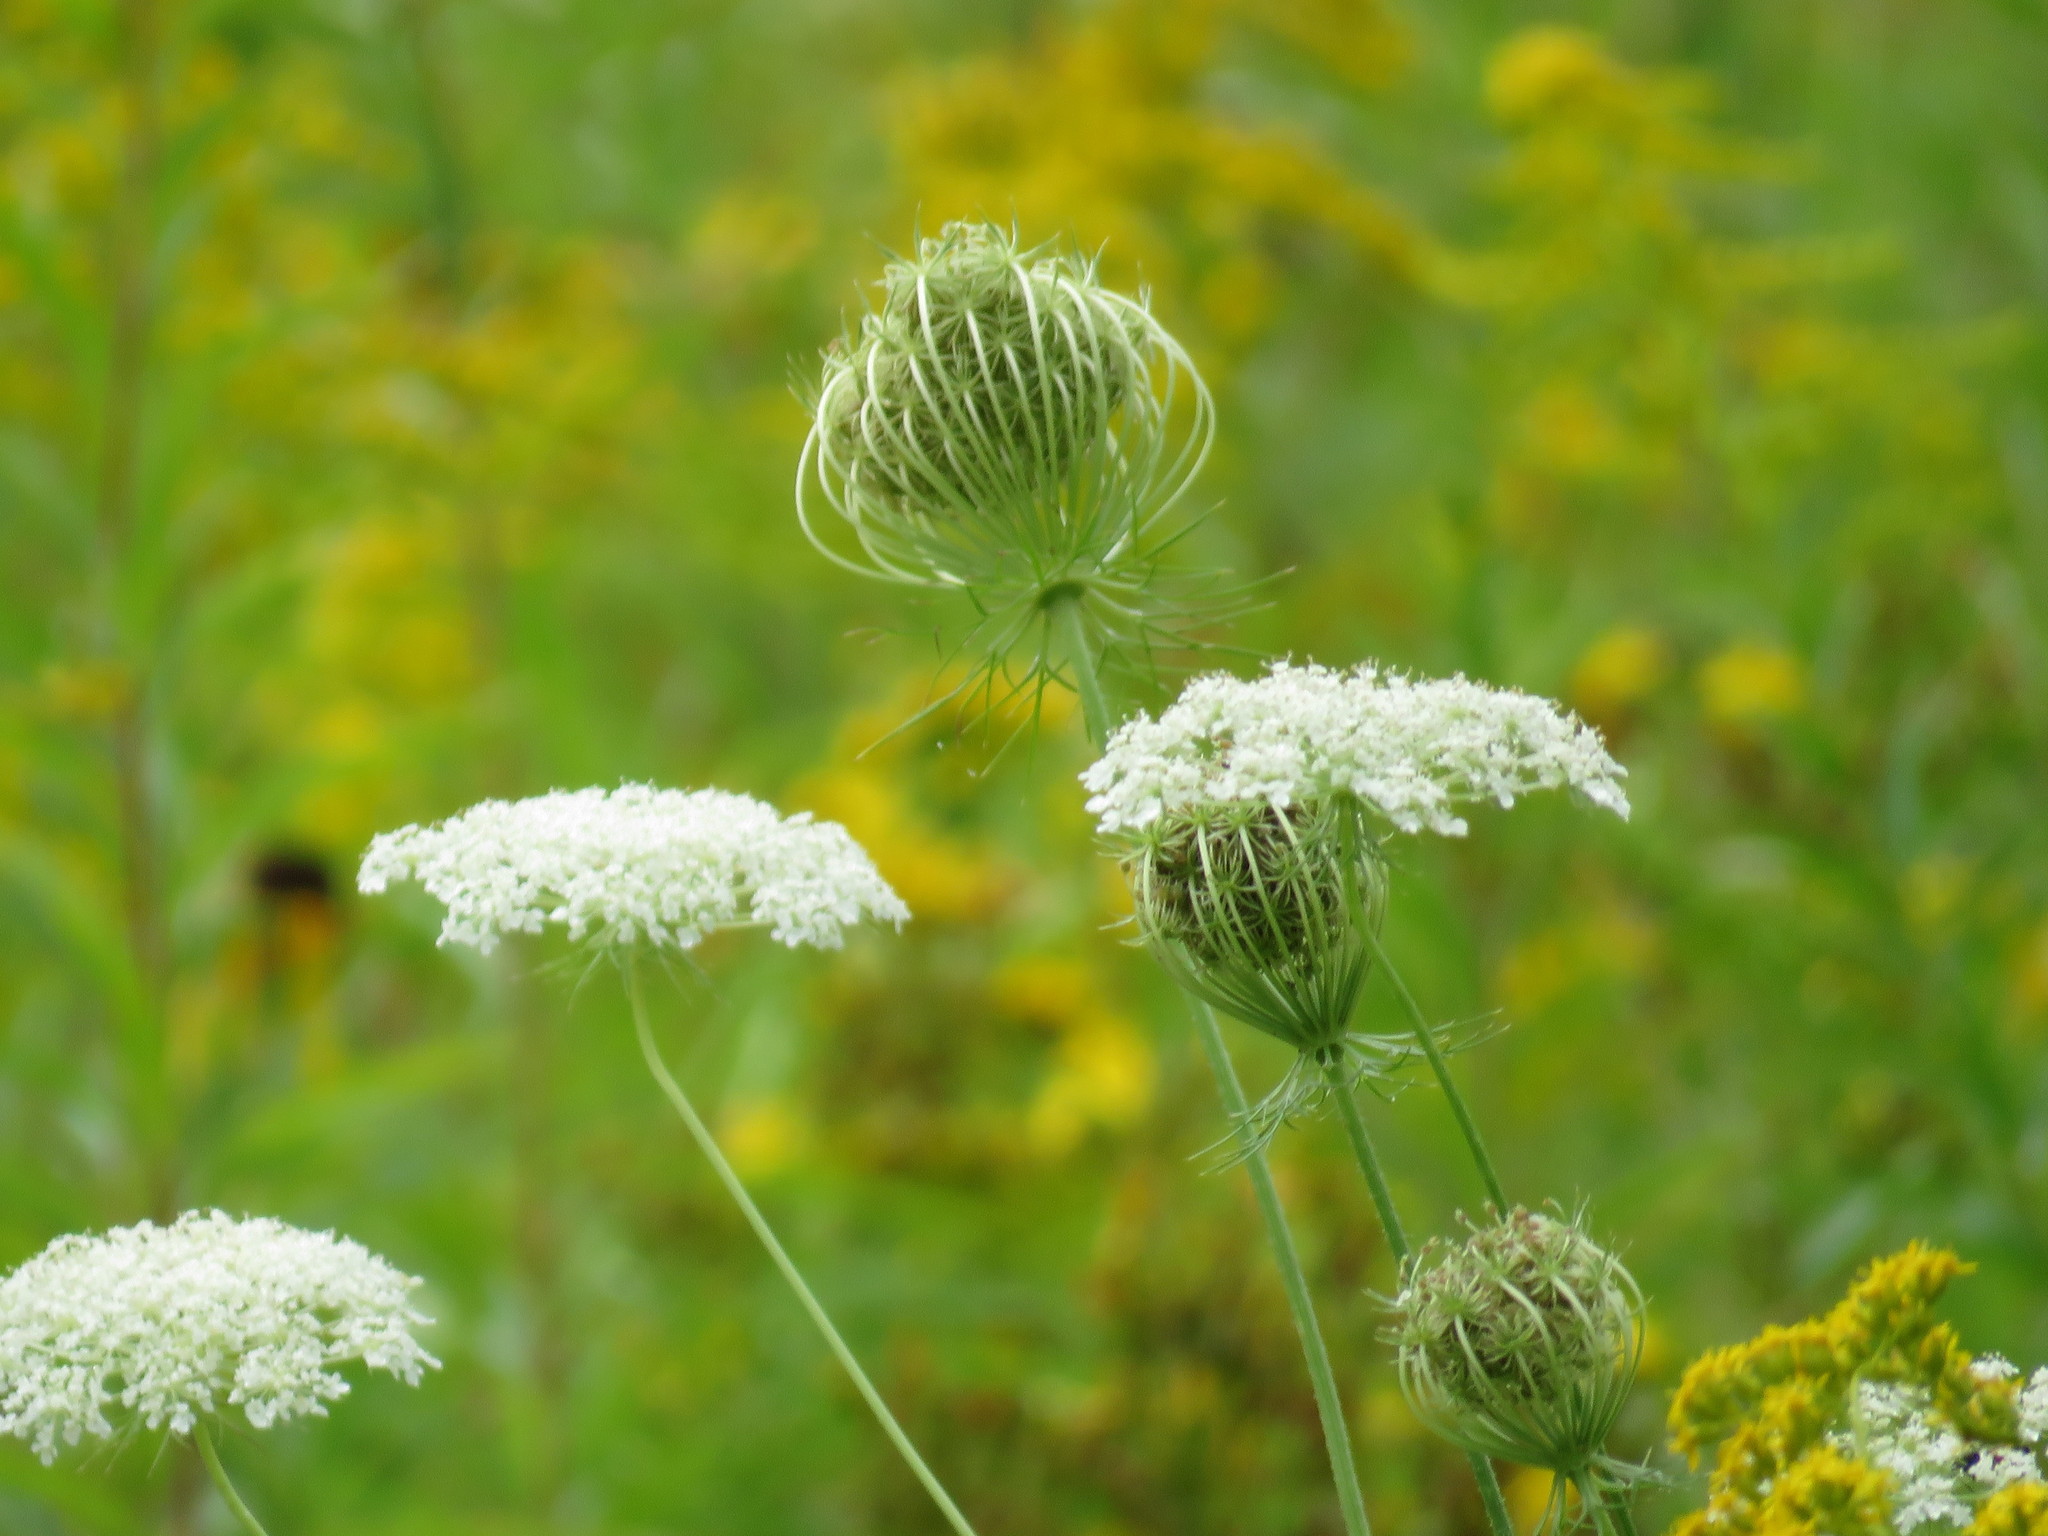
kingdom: Plantae
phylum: Tracheophyta
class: Magnoliopsida
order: Apiales
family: Apiaceae
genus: Daucus
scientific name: Daucus carota
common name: Wild carrot
